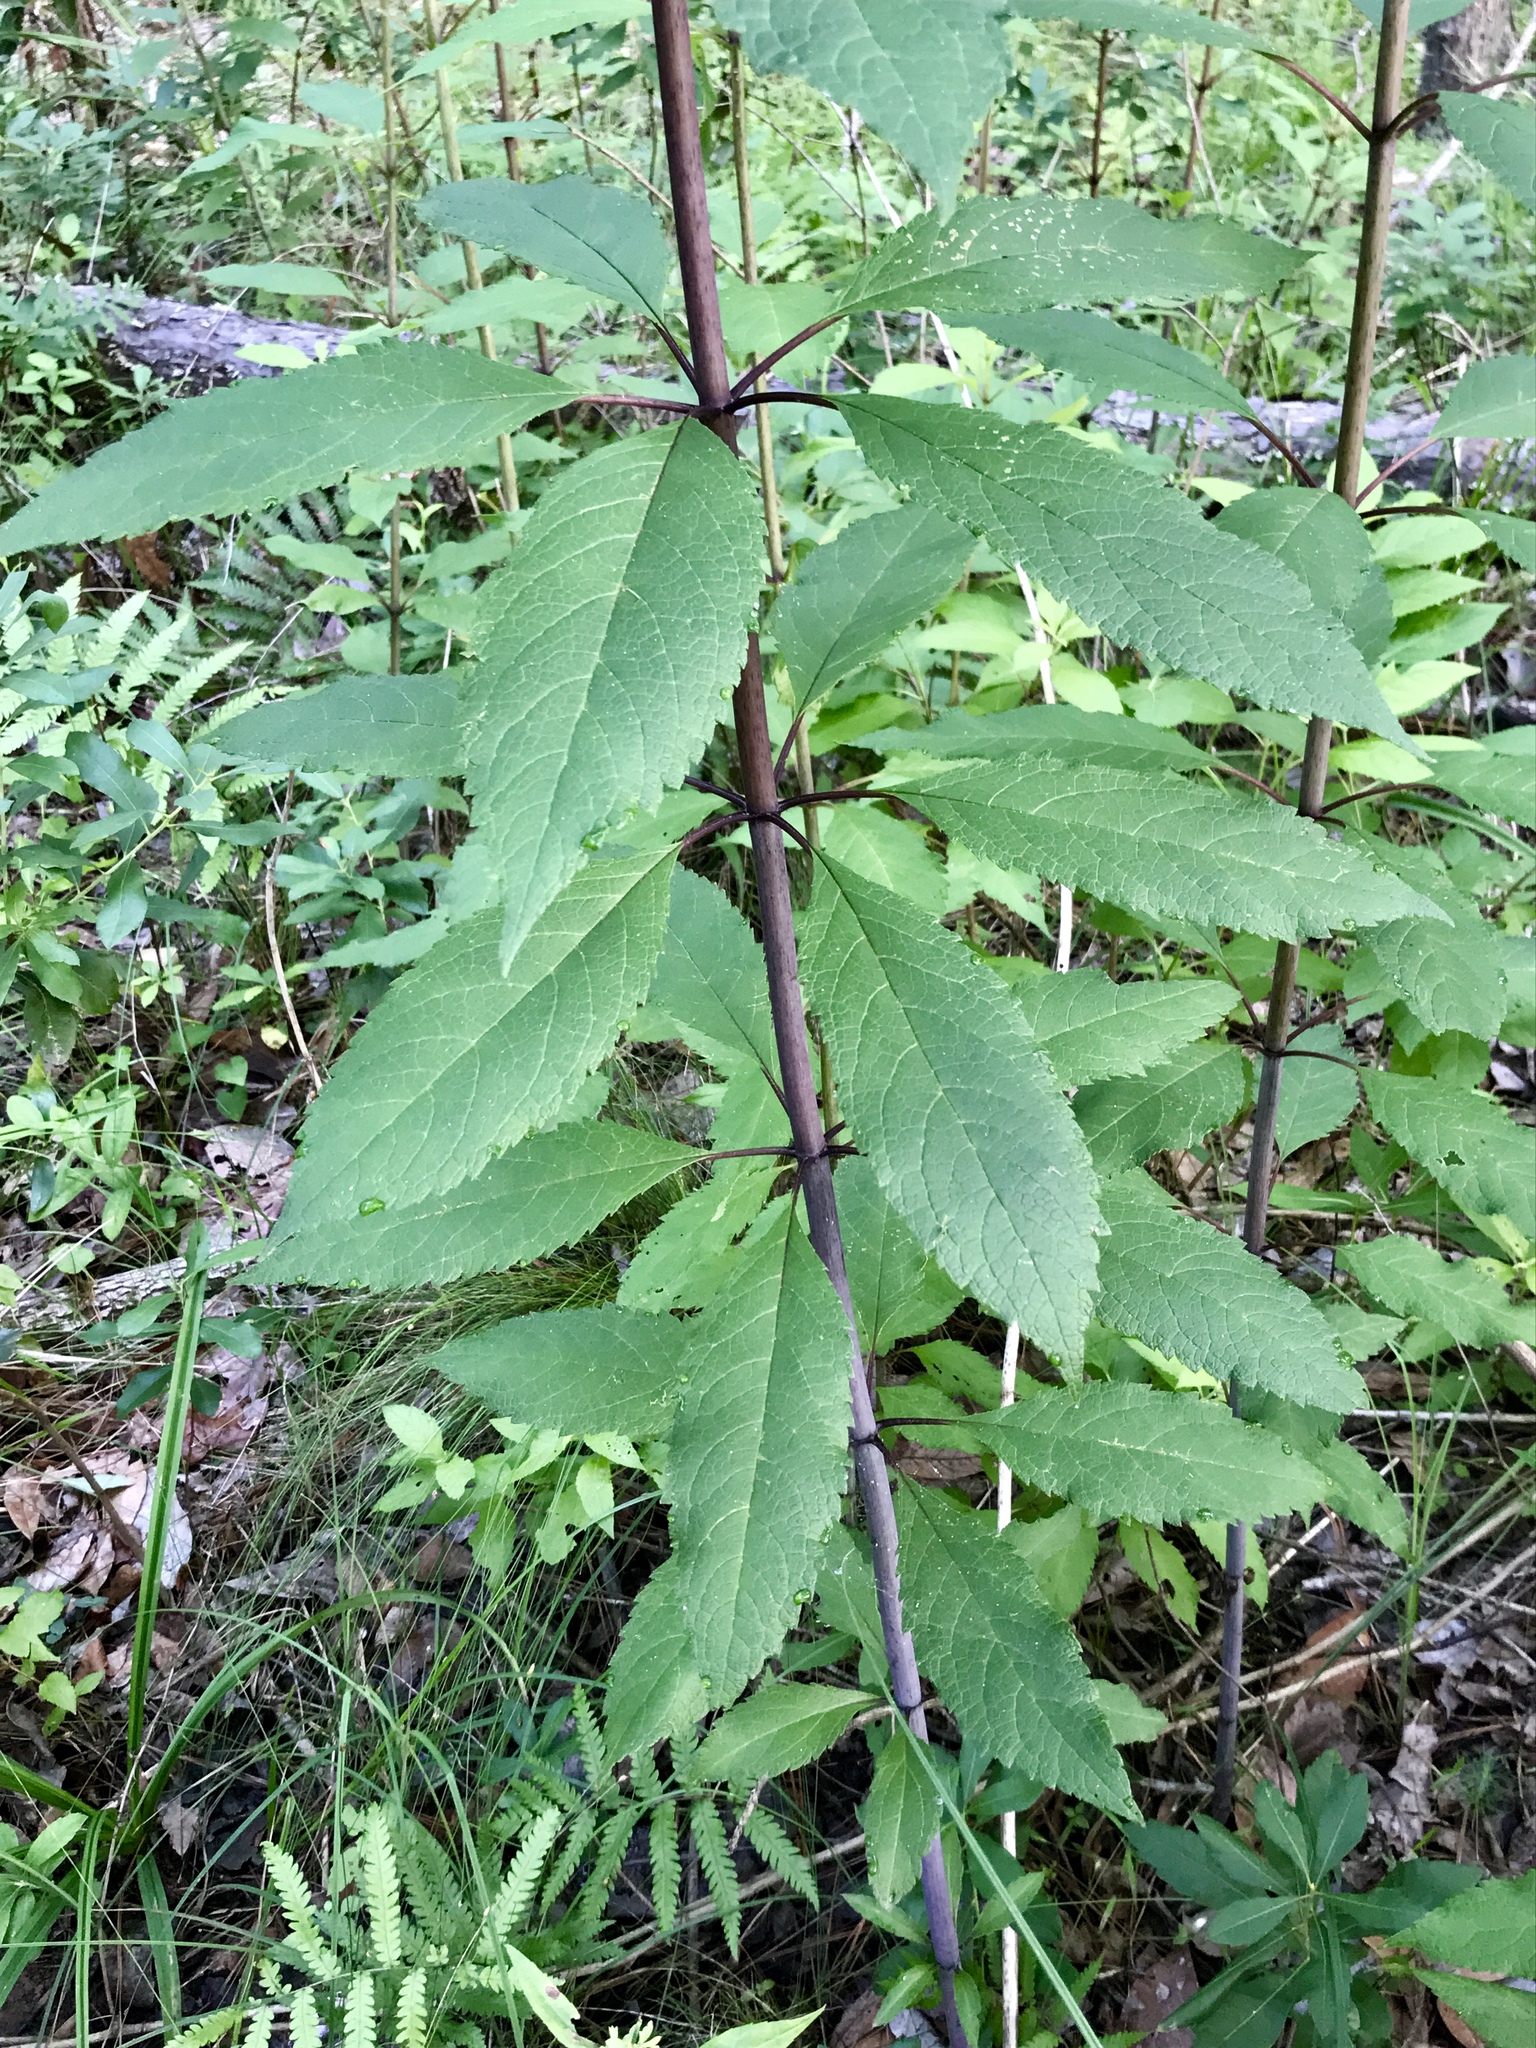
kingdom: Plantae
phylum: Tracheophyta
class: Magnoliopsida
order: Asterales
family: Asteraceae
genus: Eutrochium
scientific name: Eutrochium fistulosum
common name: Trumpetweed
